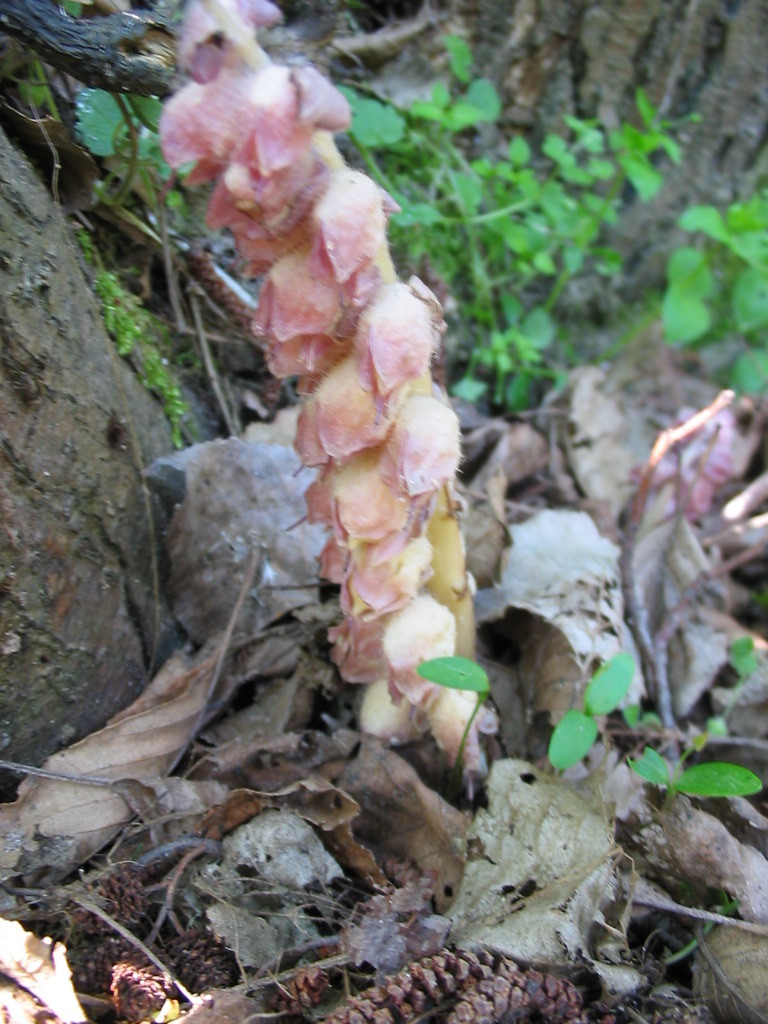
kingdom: Plantae
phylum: Tracheophyta
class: Magnoliopsida
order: Lamiales
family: Orobanchaceae
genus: Lathraea
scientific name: Lathraea squamaria
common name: Toothwort
